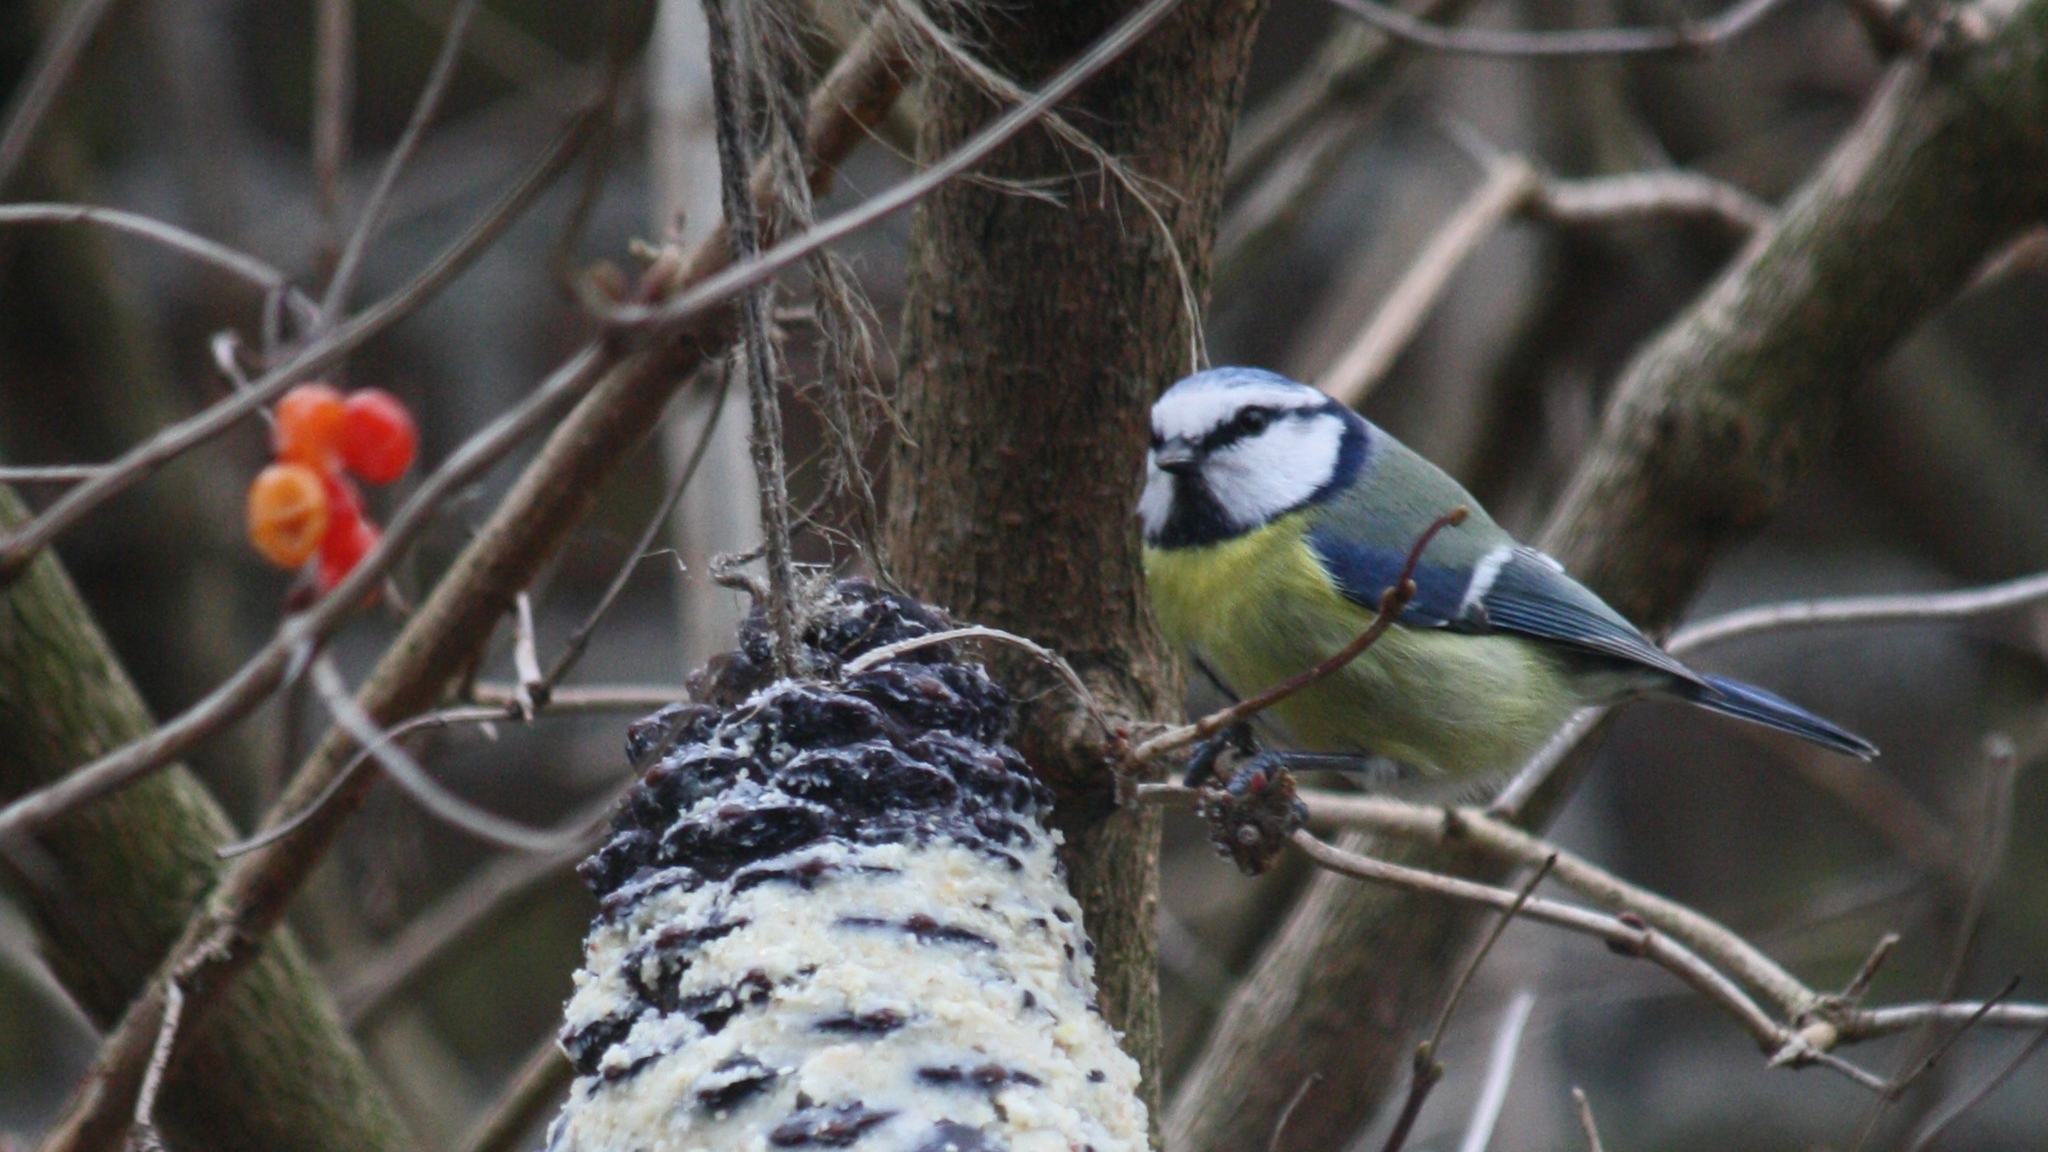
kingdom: Animalia
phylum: Chordata
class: Aves
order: Passeriformes
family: Paridae
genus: Cyanistes
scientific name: Cyanistes caeruleus
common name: Eurasian blue tit
